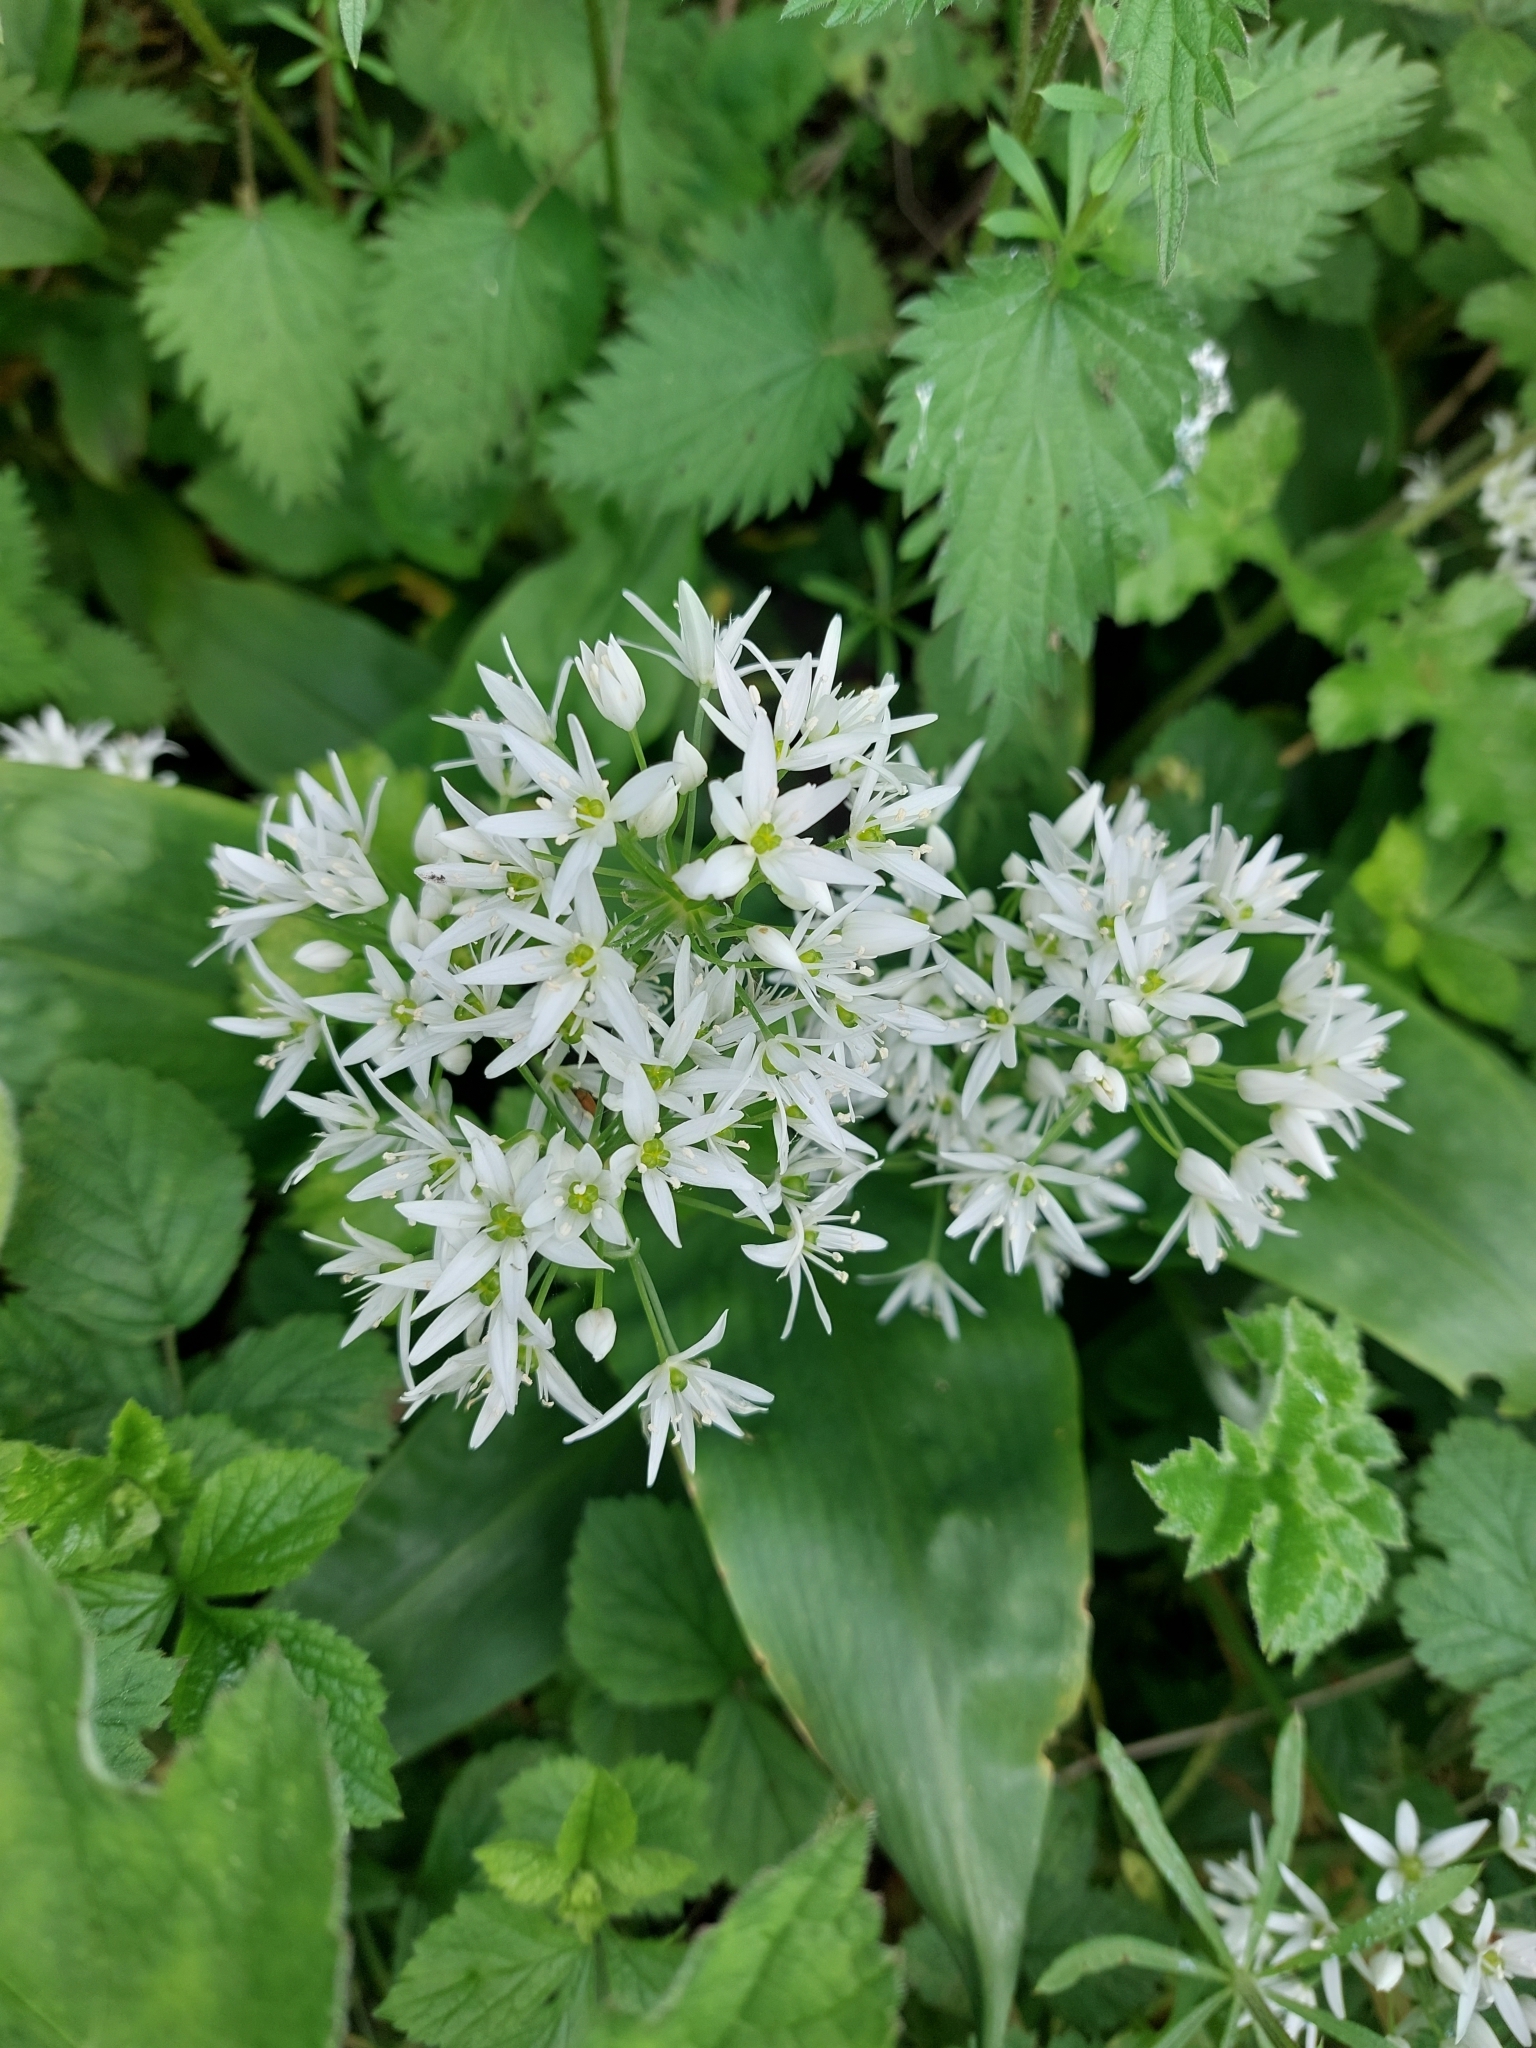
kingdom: Plantae
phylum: Tracheophyta
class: Liliopsida
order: Asparagales
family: Amaryllidaceae
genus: Allium
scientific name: Allium ursinum
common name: Ramsons
